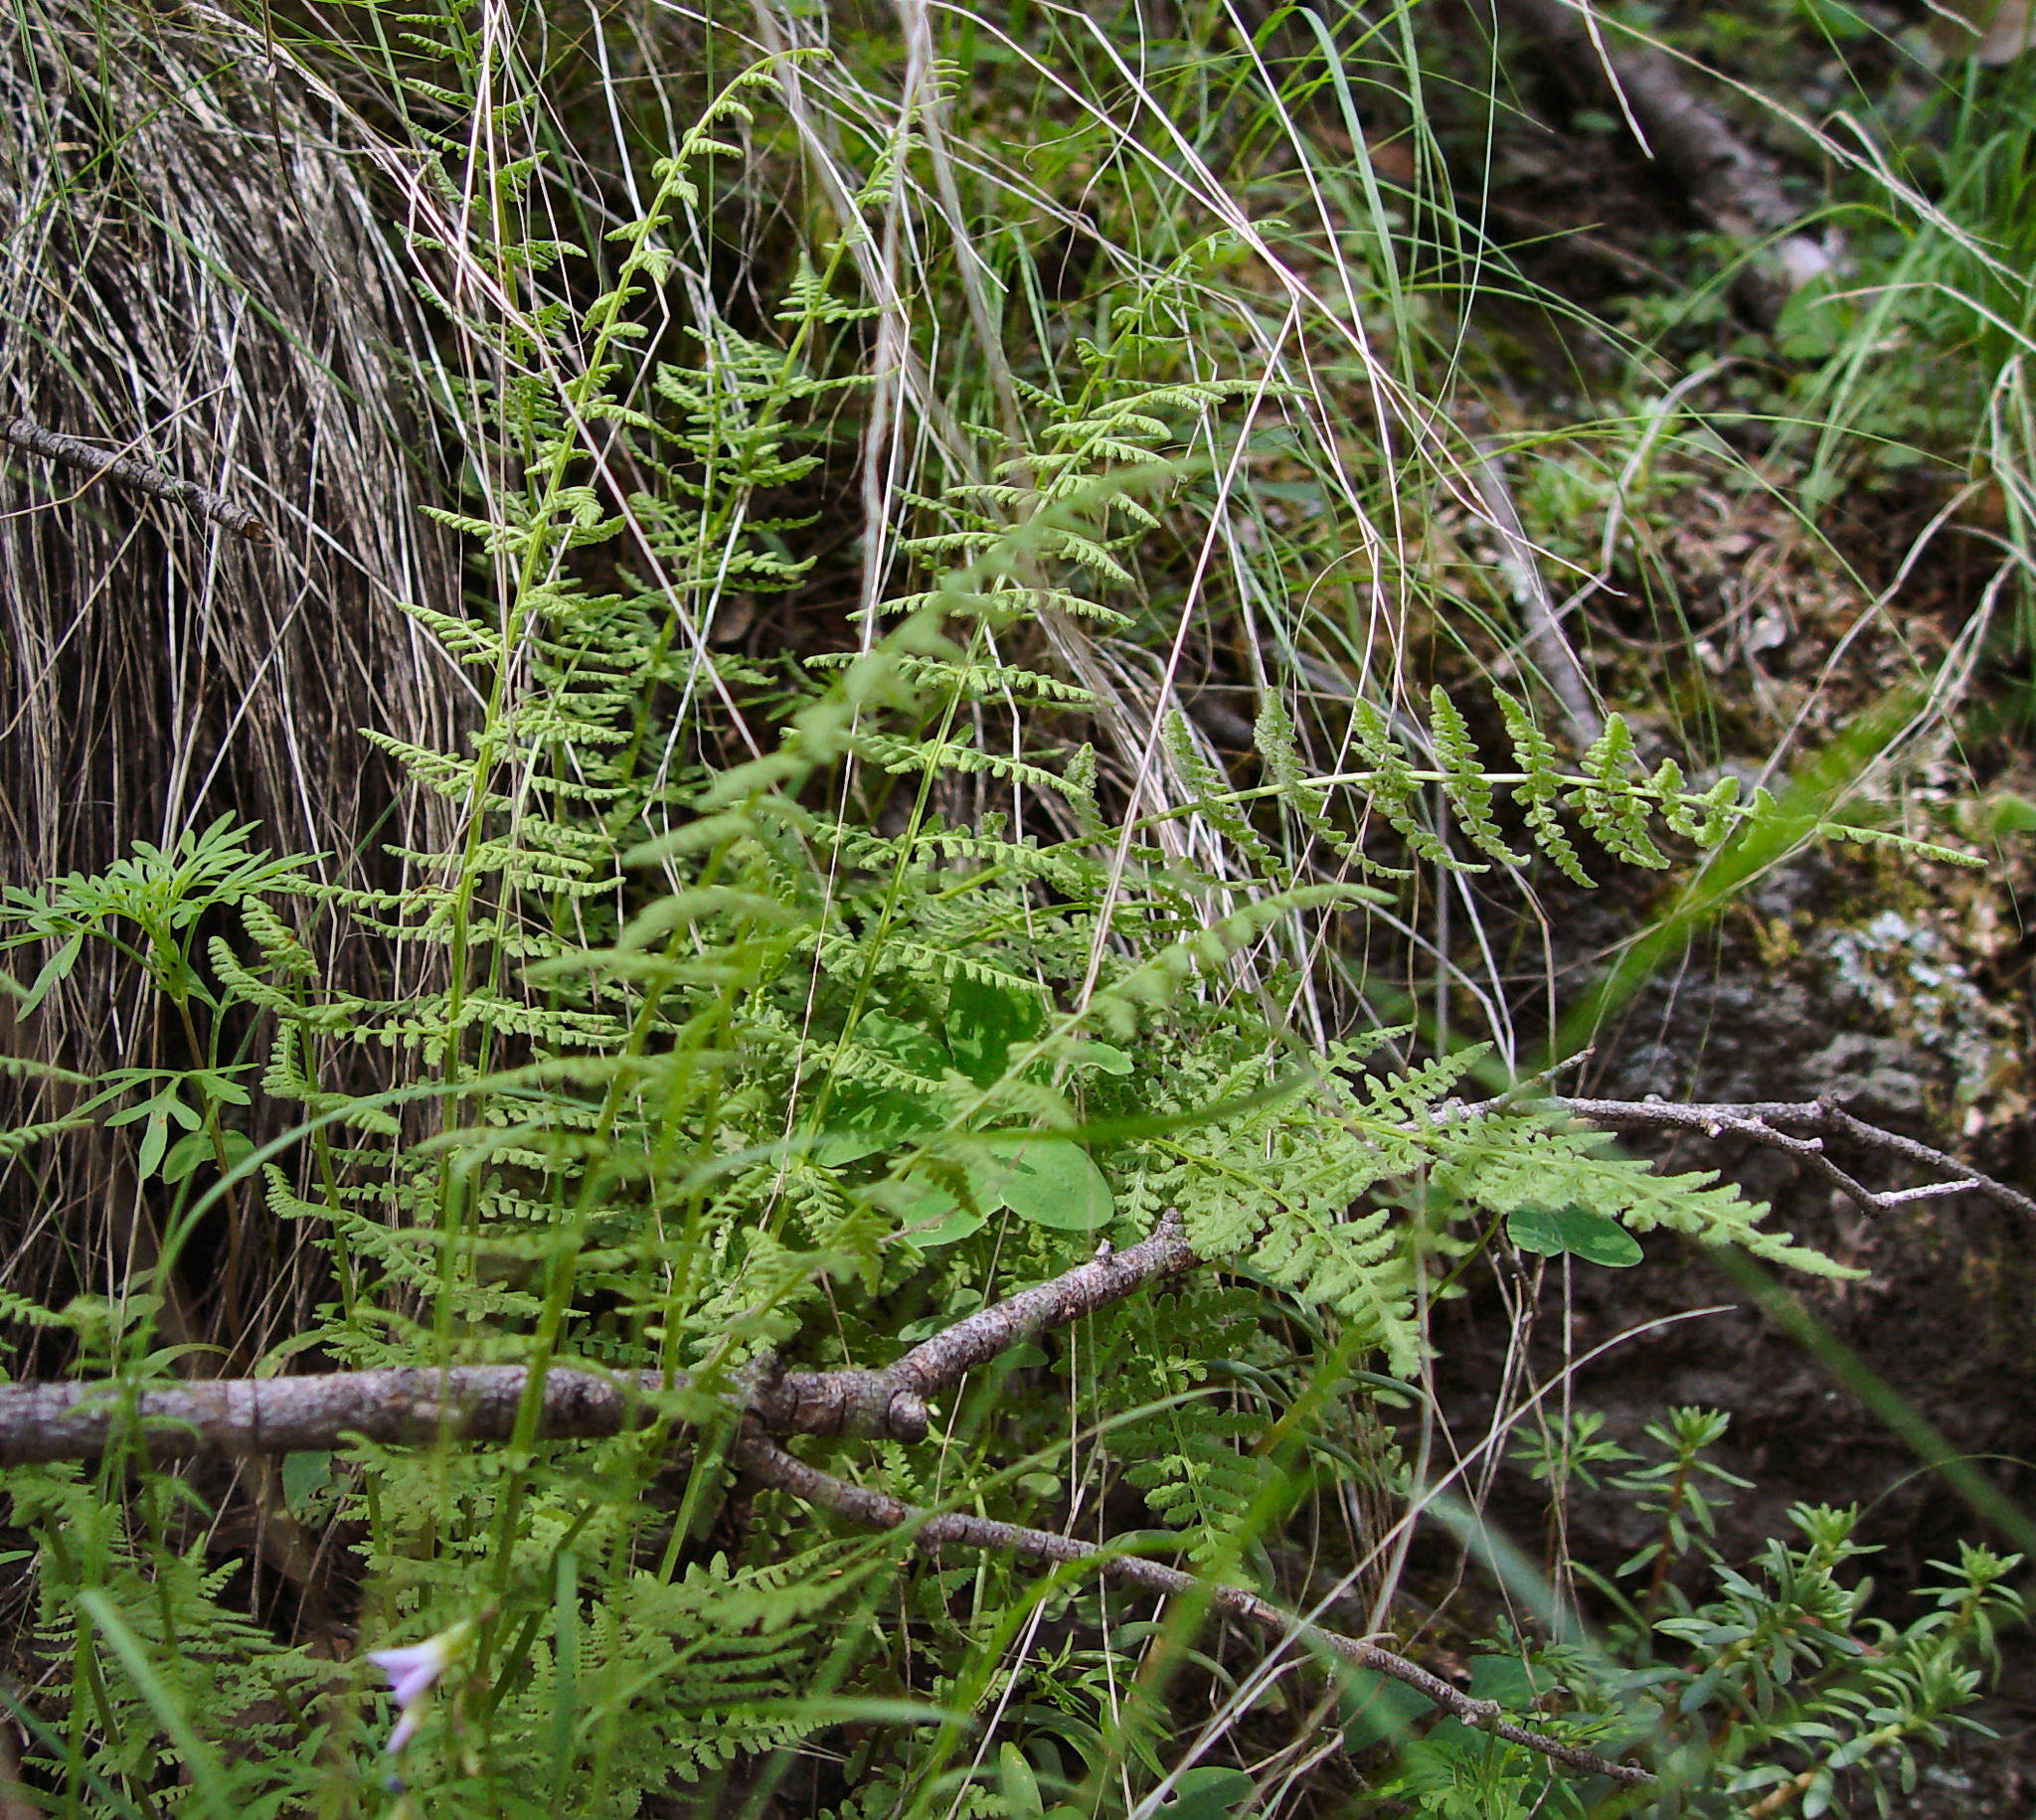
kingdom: Plantae
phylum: Tracheophyta
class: Polypodiopsida
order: Polypodiales
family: Woodsiaceae
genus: Physematium
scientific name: Physematium phillipsii
